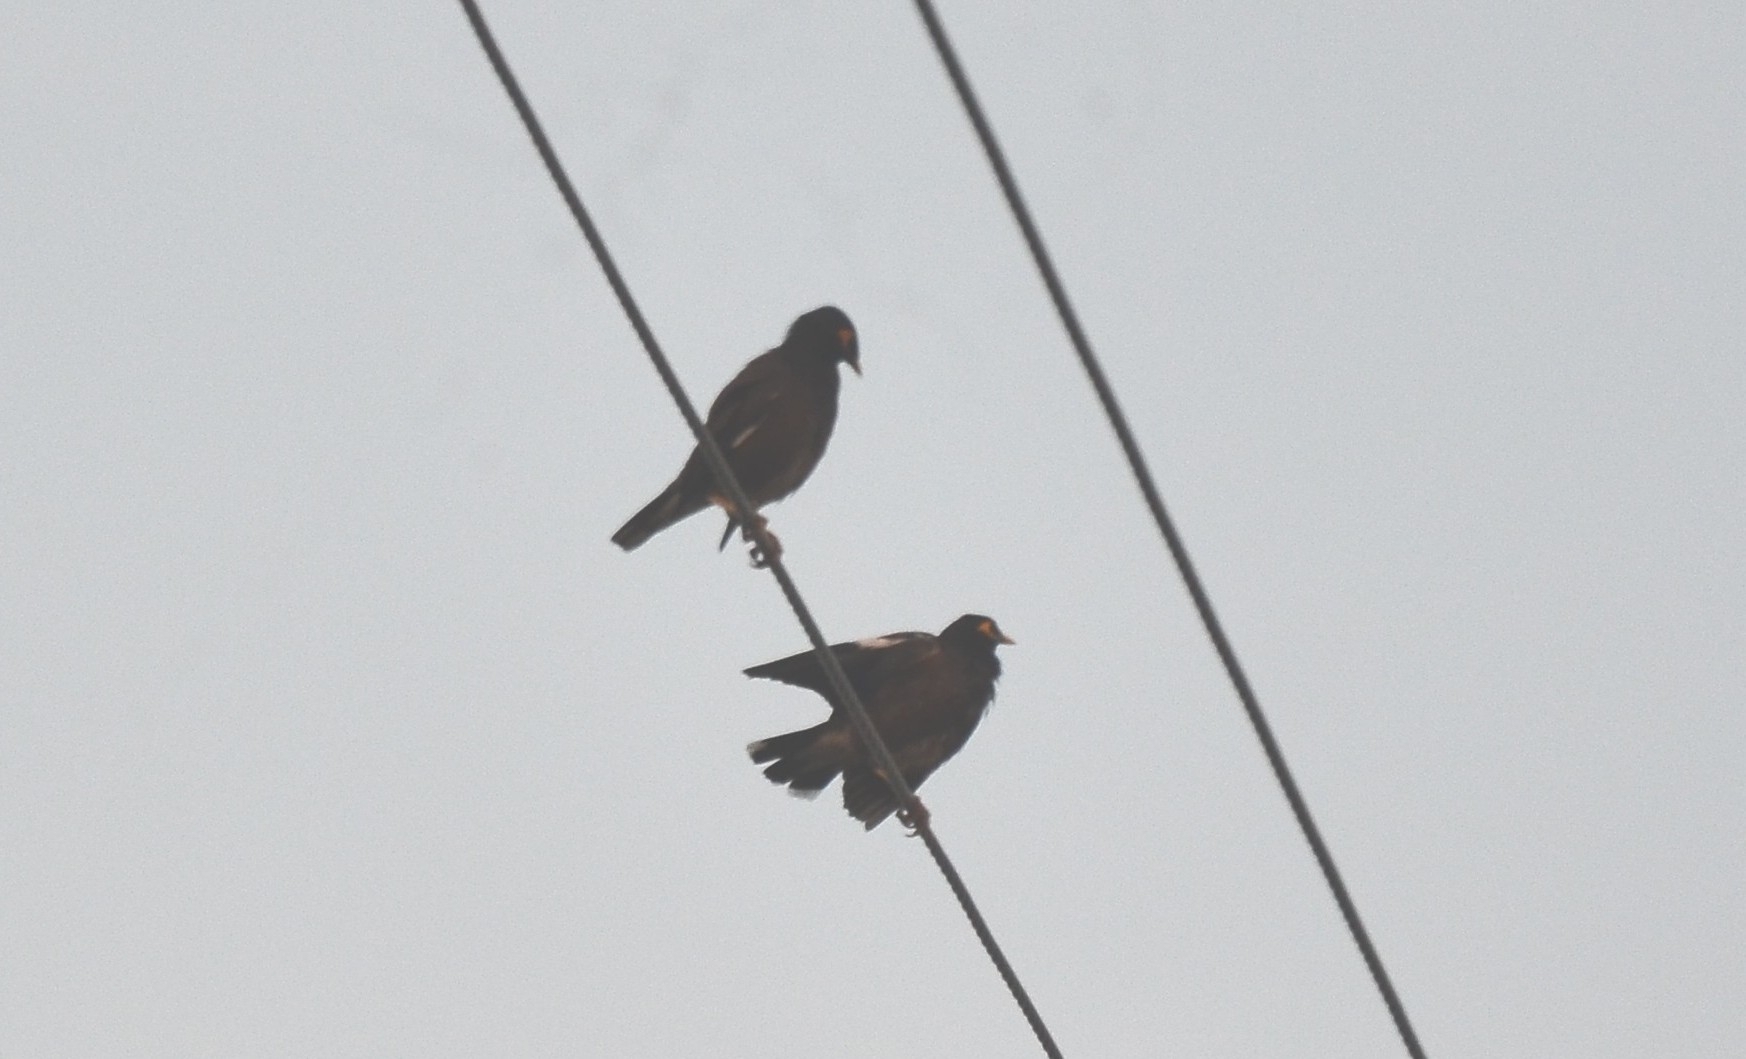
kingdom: Animalia
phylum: Chordata
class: Aves
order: Passeriformes
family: Sturnidae
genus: Acridotheres
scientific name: Acridotheres tristis
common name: Common myna
